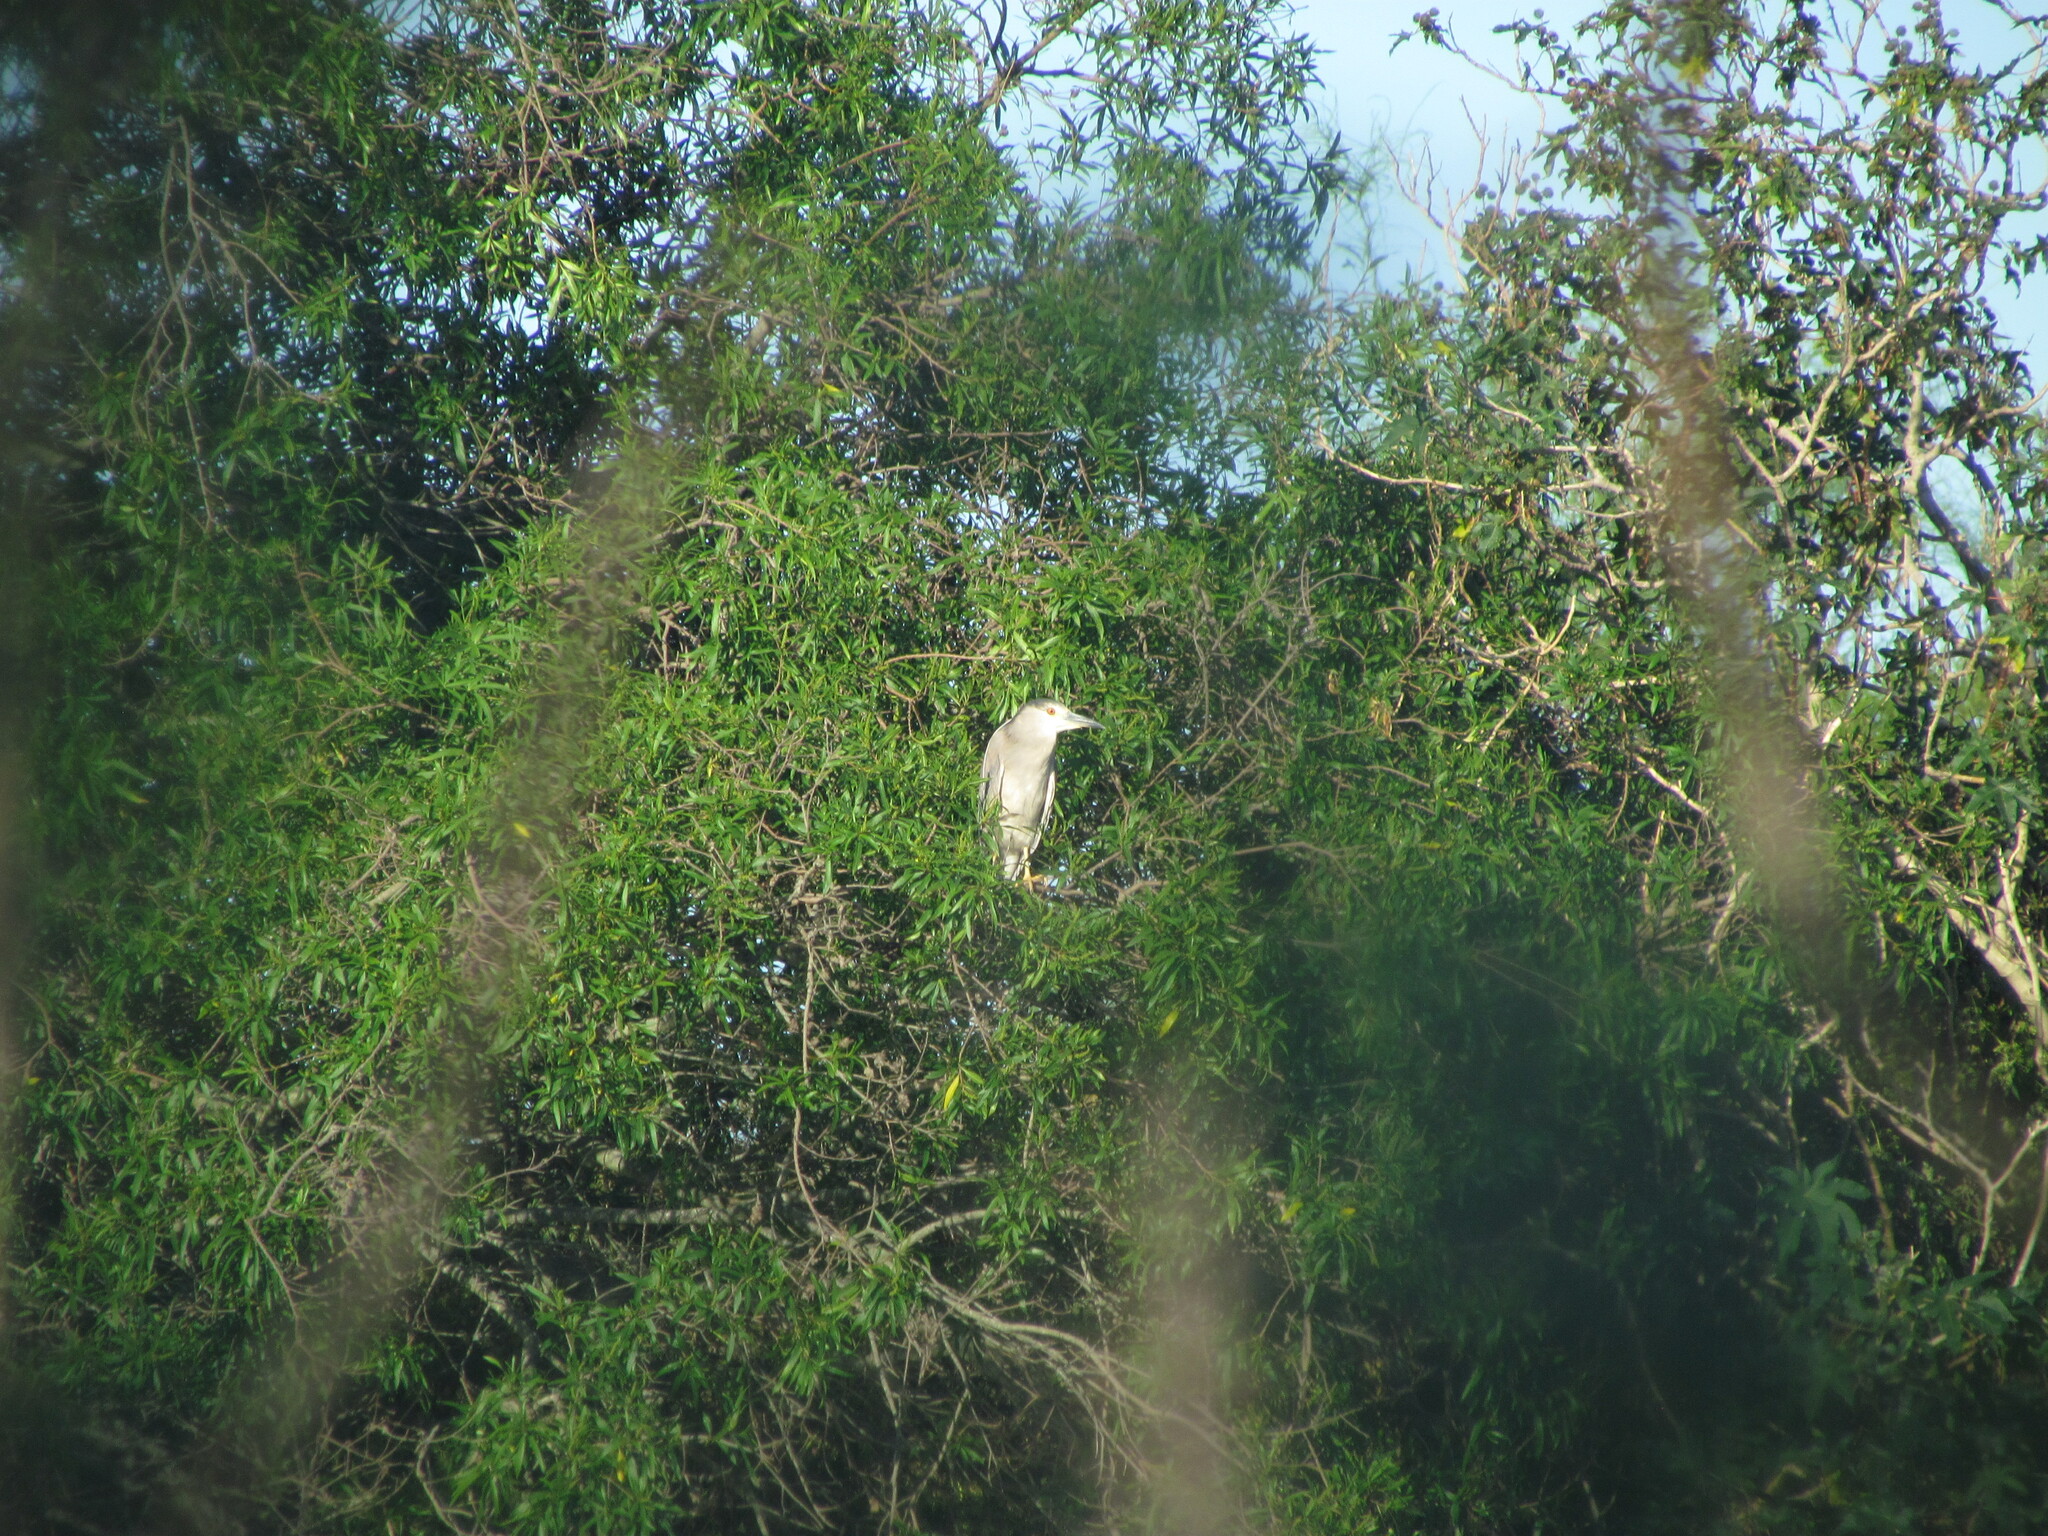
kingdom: Animalia
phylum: Chordata
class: Aves
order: Pelecaniformes
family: Ardeidae
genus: Nycticorax
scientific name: Nycticorax nycticorax
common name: Black-crowned night heron
